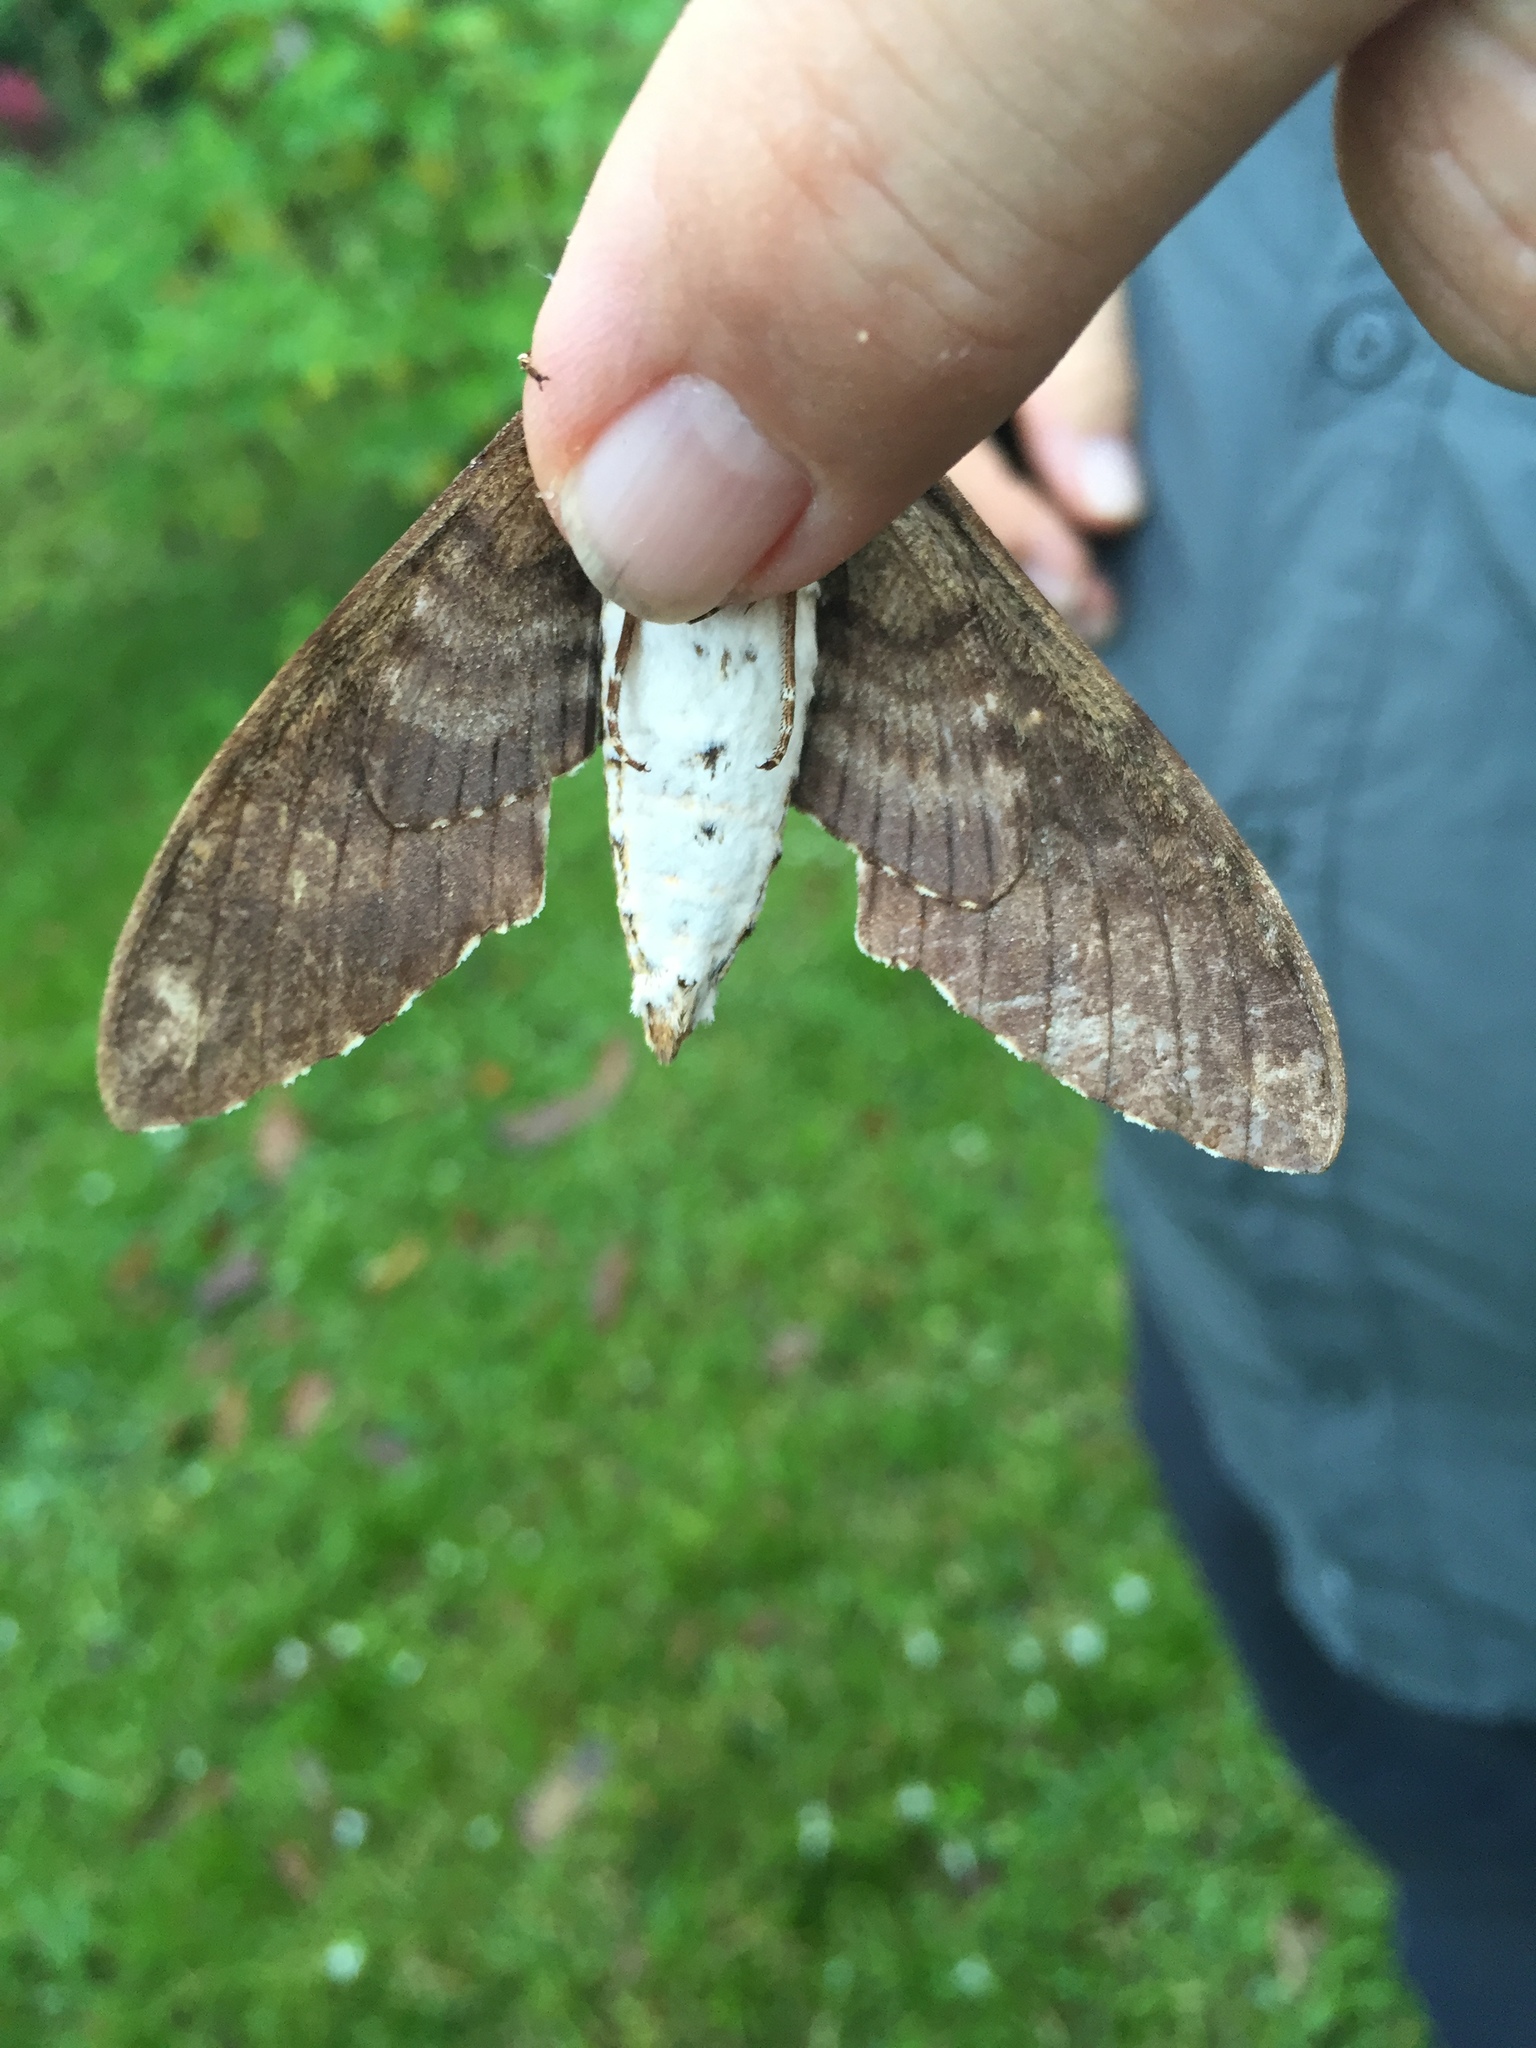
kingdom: Animalia
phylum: Arthropoda
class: Insecta
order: Lepidoptera
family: Sphingidae
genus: Manduca
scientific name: Manduca lichenea
